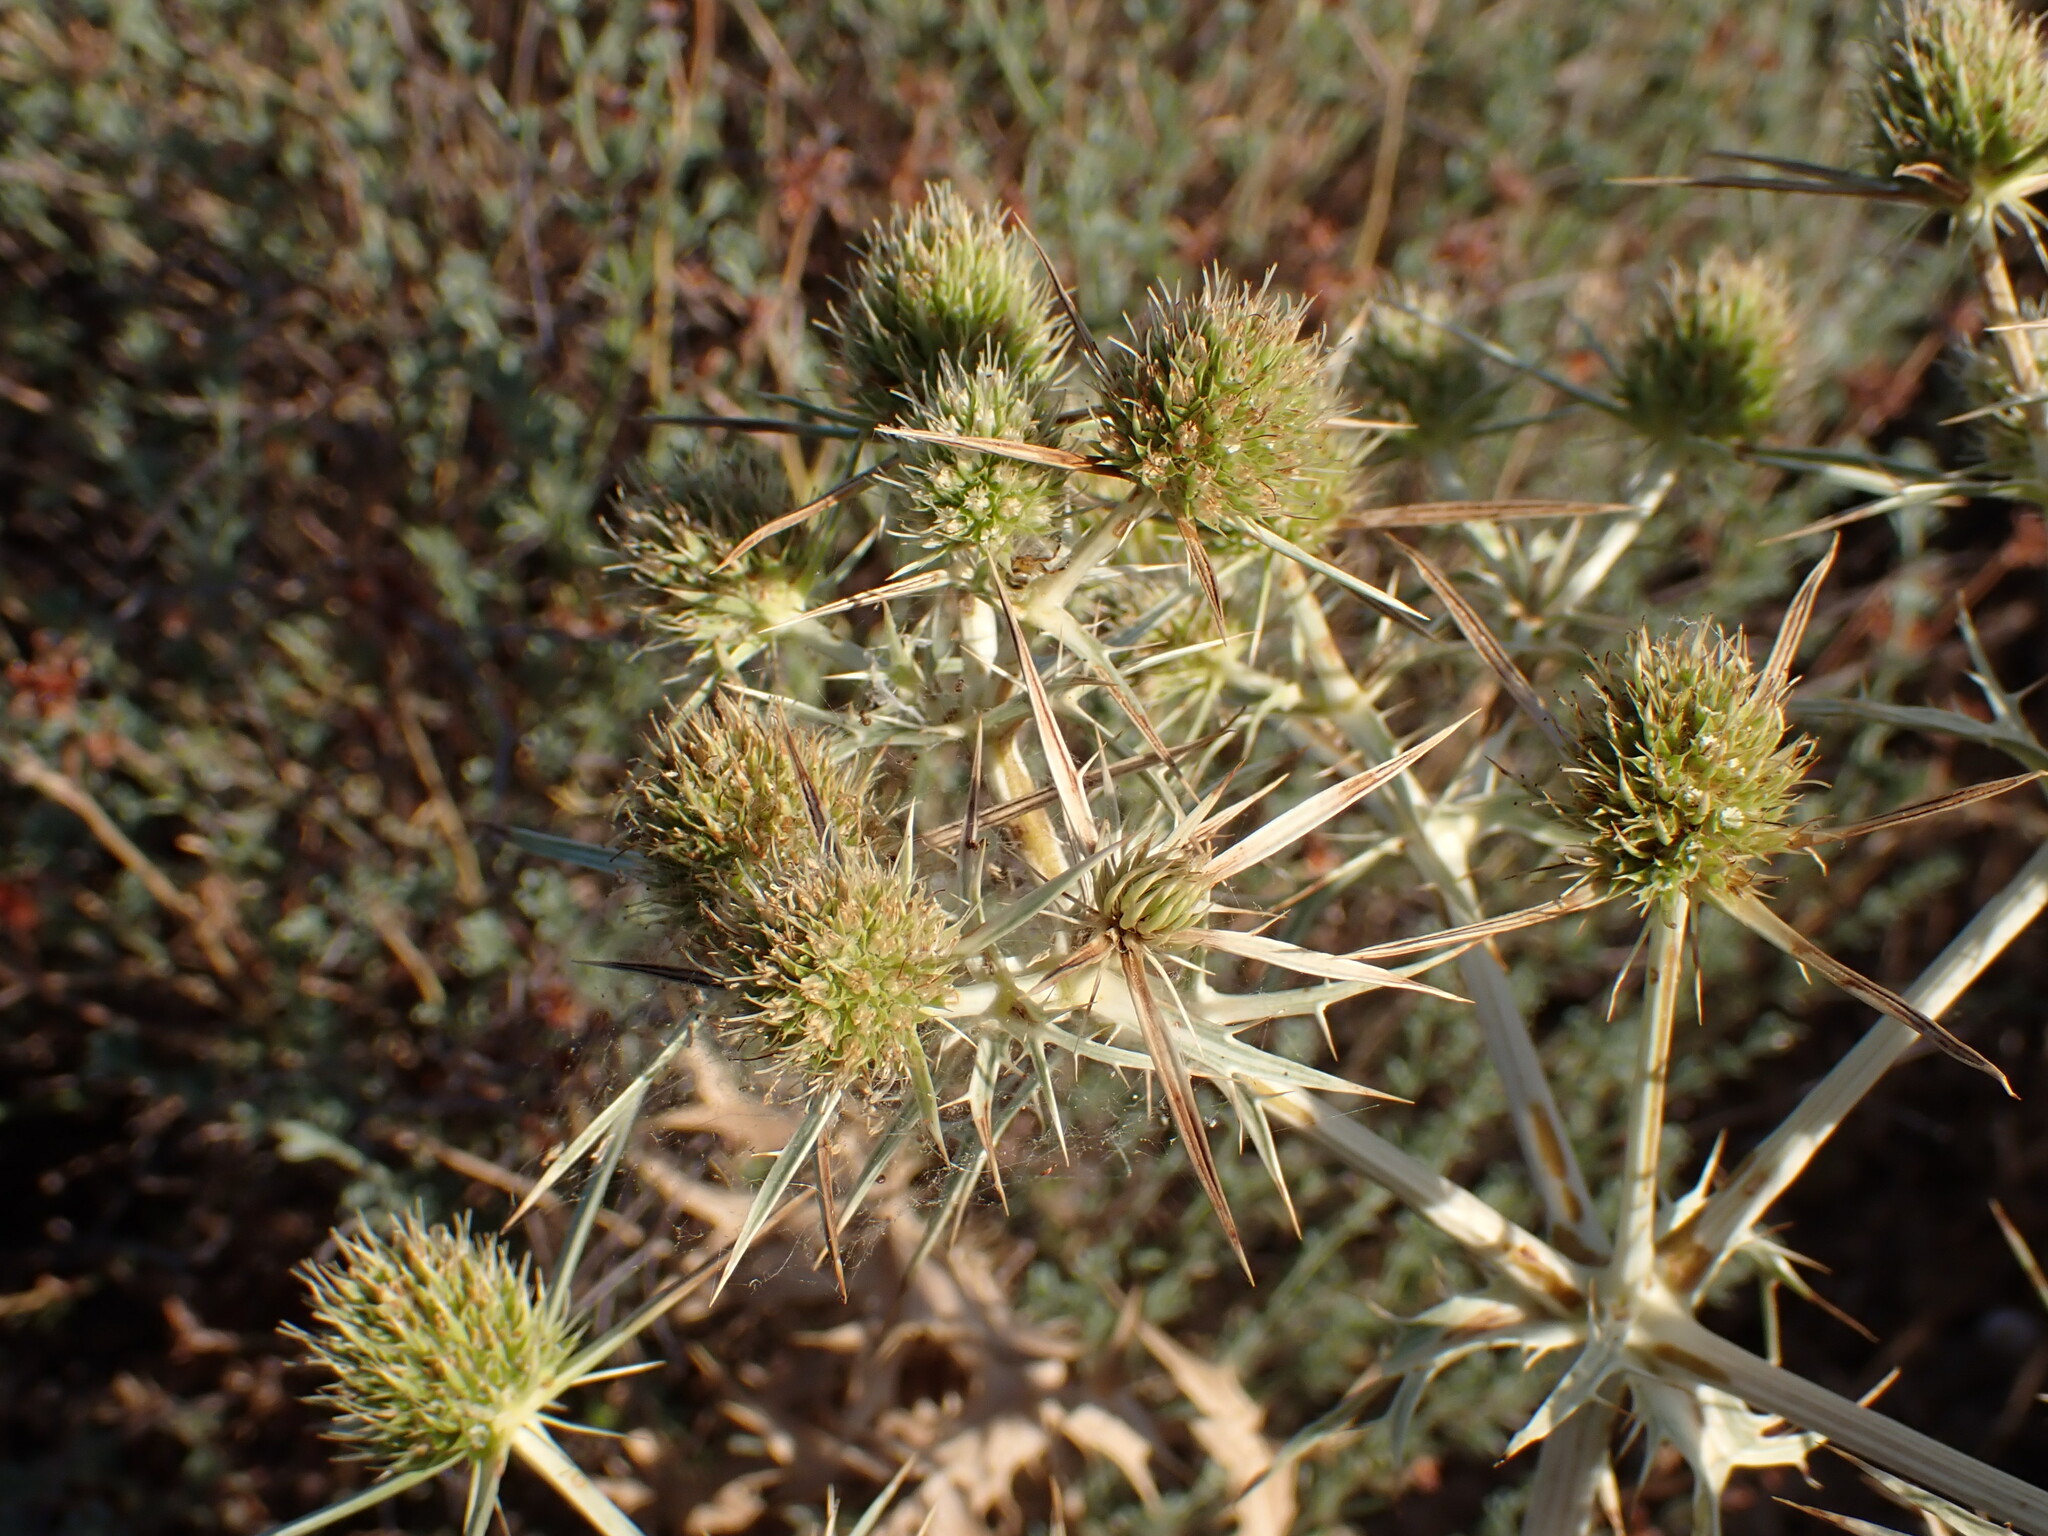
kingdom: Plantae
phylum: Tracheophyta
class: Magnoliopsida
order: Apiales
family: Apiaceae
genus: Eryngium
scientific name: Eryngium campestre
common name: Field eryngo
